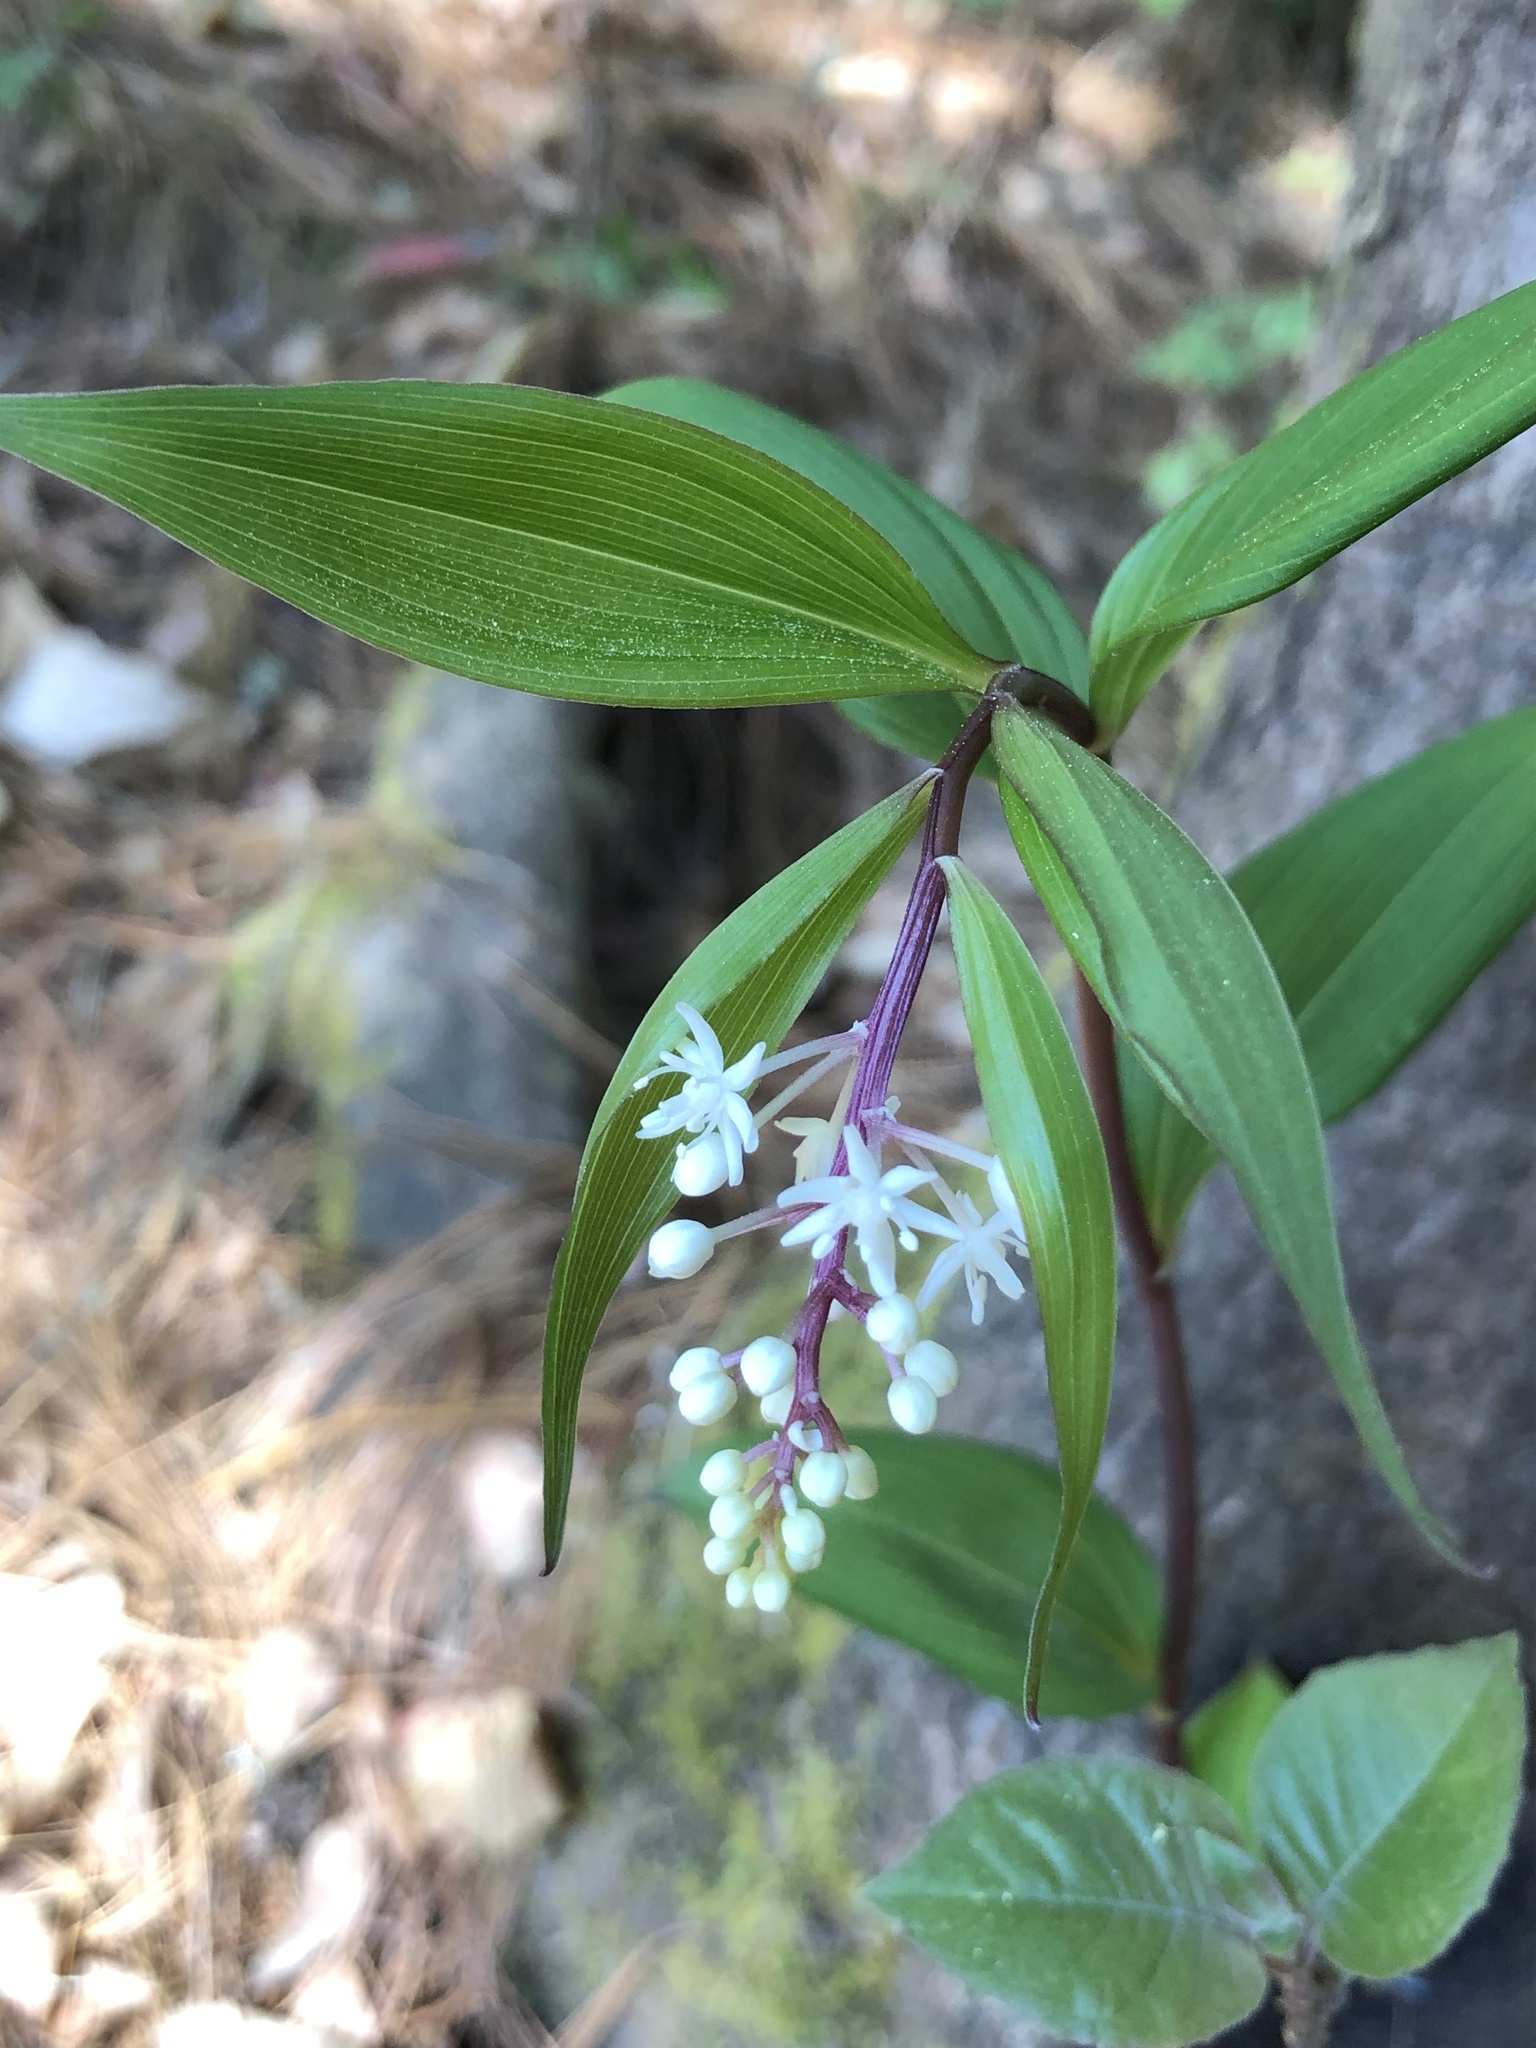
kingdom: Plantae
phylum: Tracheophyta
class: Liliopsida
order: Asparagales
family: Asparagaceae
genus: Maianthemum
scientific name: Maianthemum scilloideum
